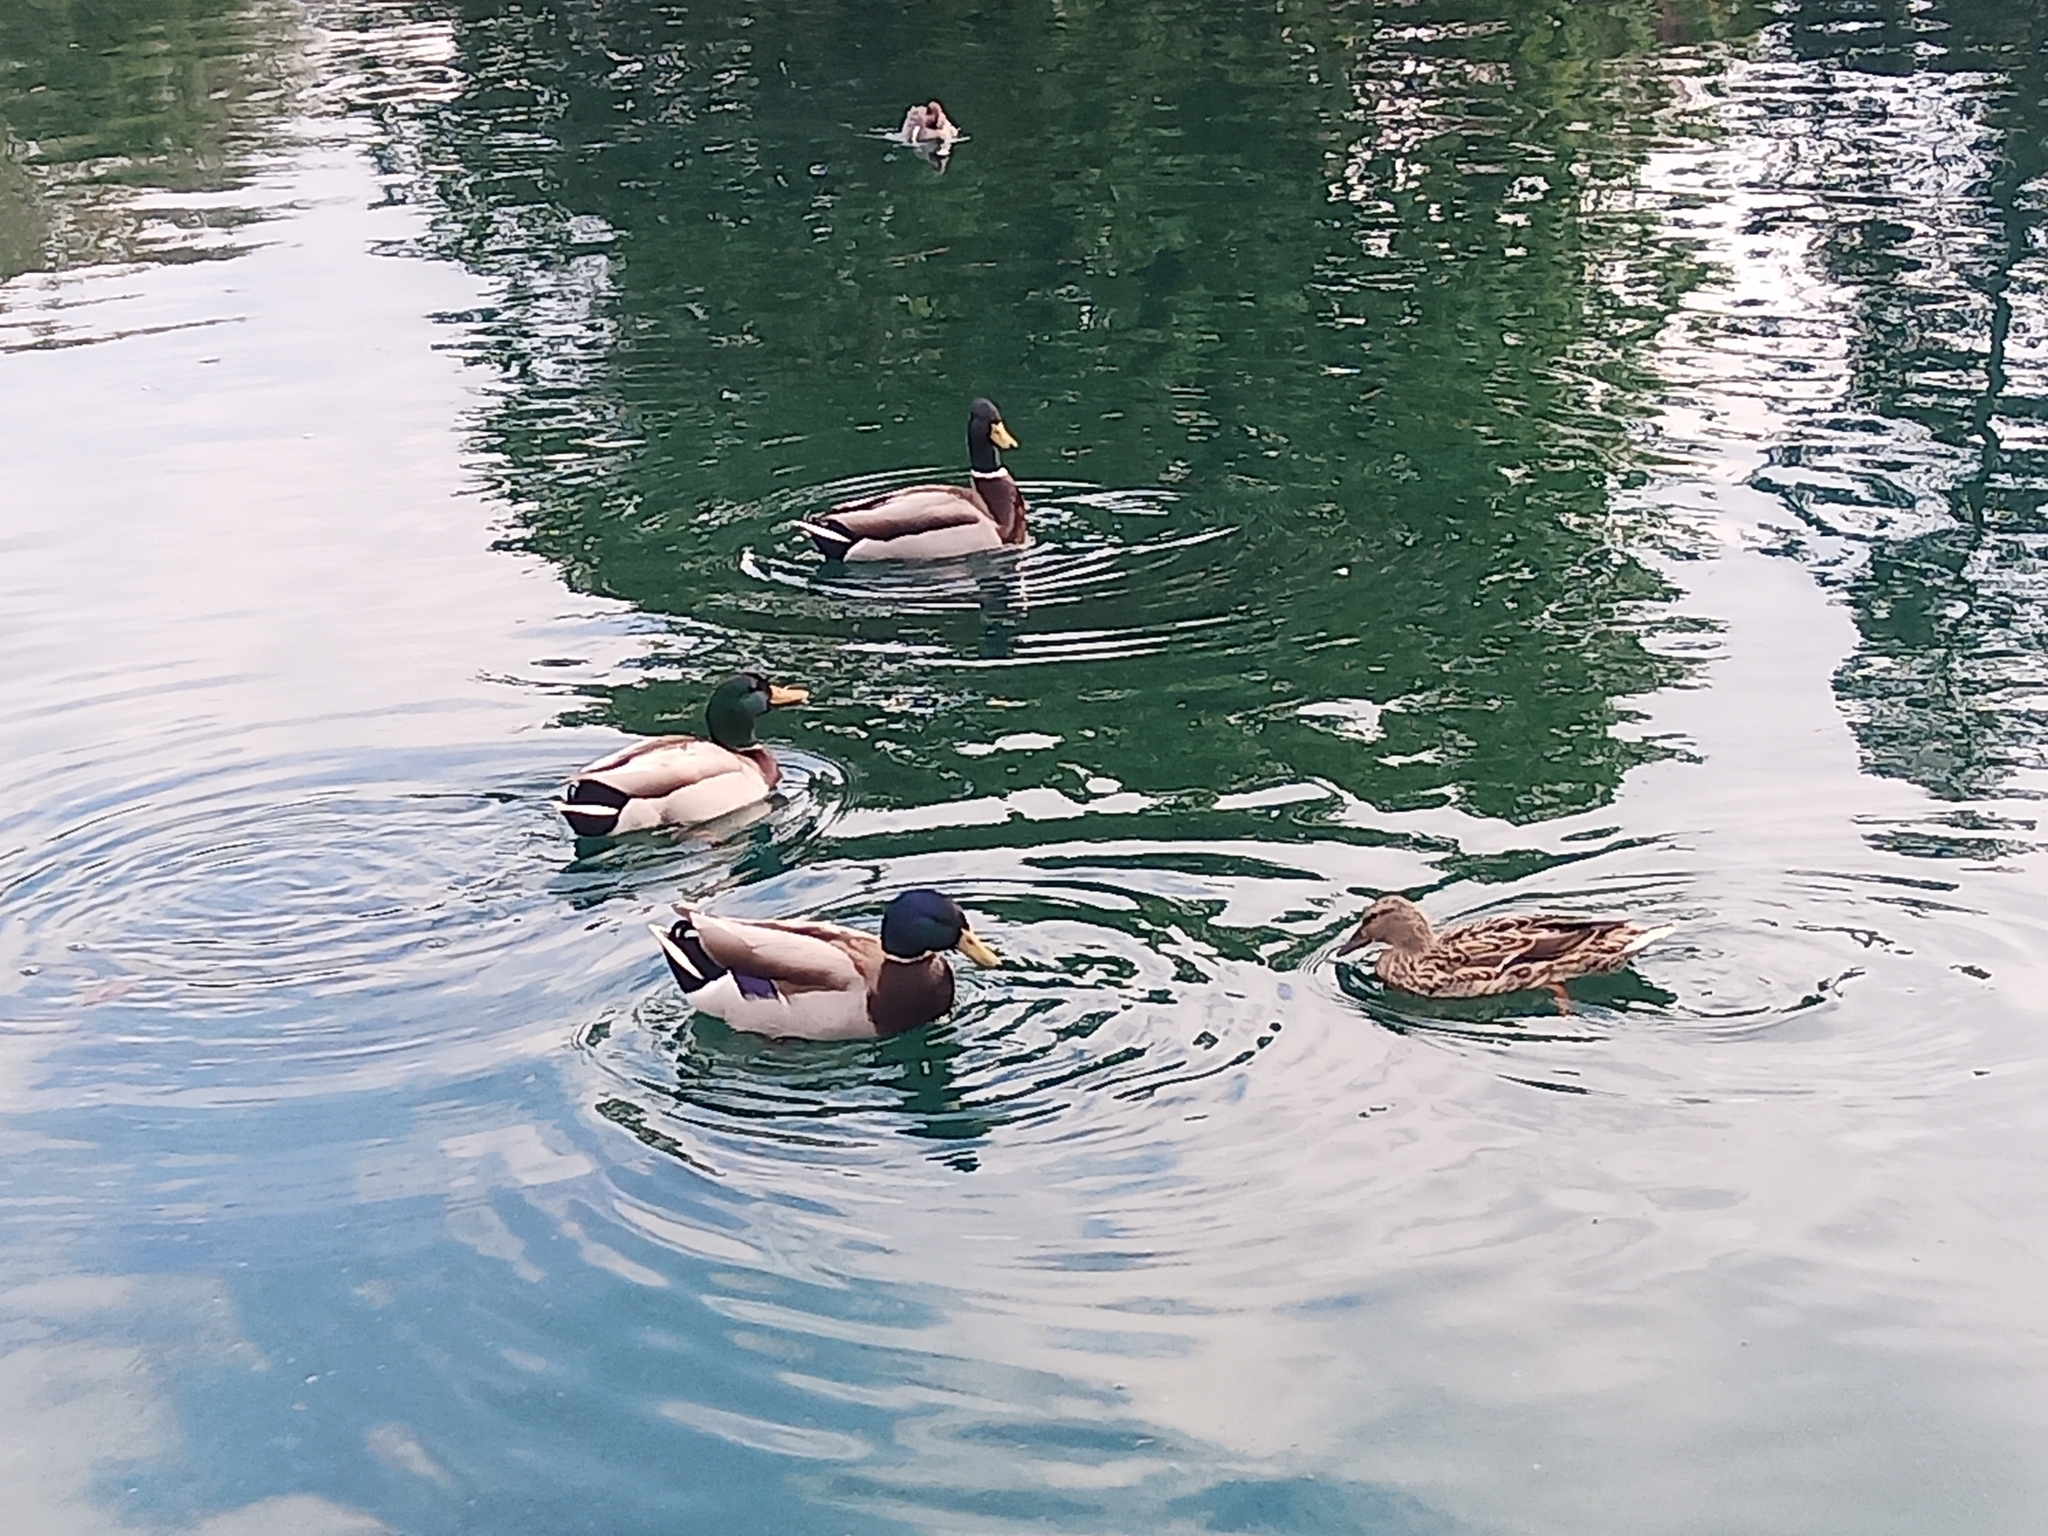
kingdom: Animalia
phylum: Chordata
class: Aves
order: Anseriformes
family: Anatidae
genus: Anas
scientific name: Anas platyrhynchos
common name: Mallard
